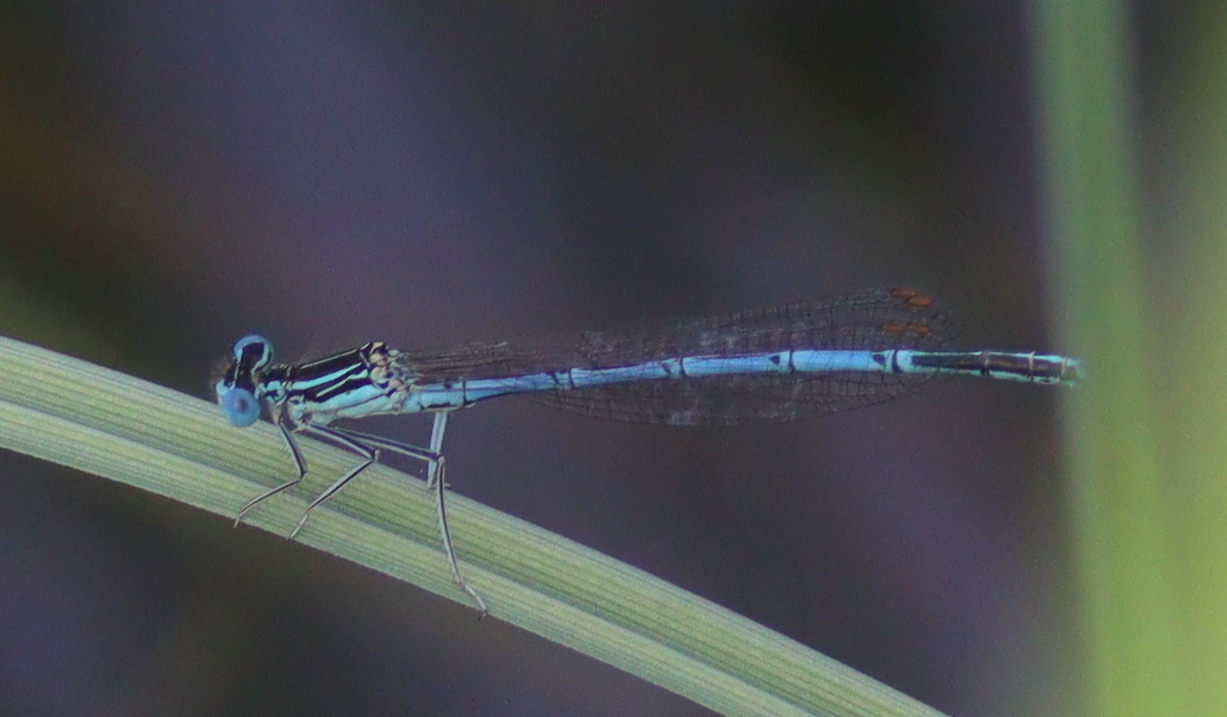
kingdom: Animalia
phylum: Arthropoda
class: Insecta
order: Odonata
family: Platycnemididae
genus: Platycnemis
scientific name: Platycnemis pennipes
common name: White-legged damselfly
